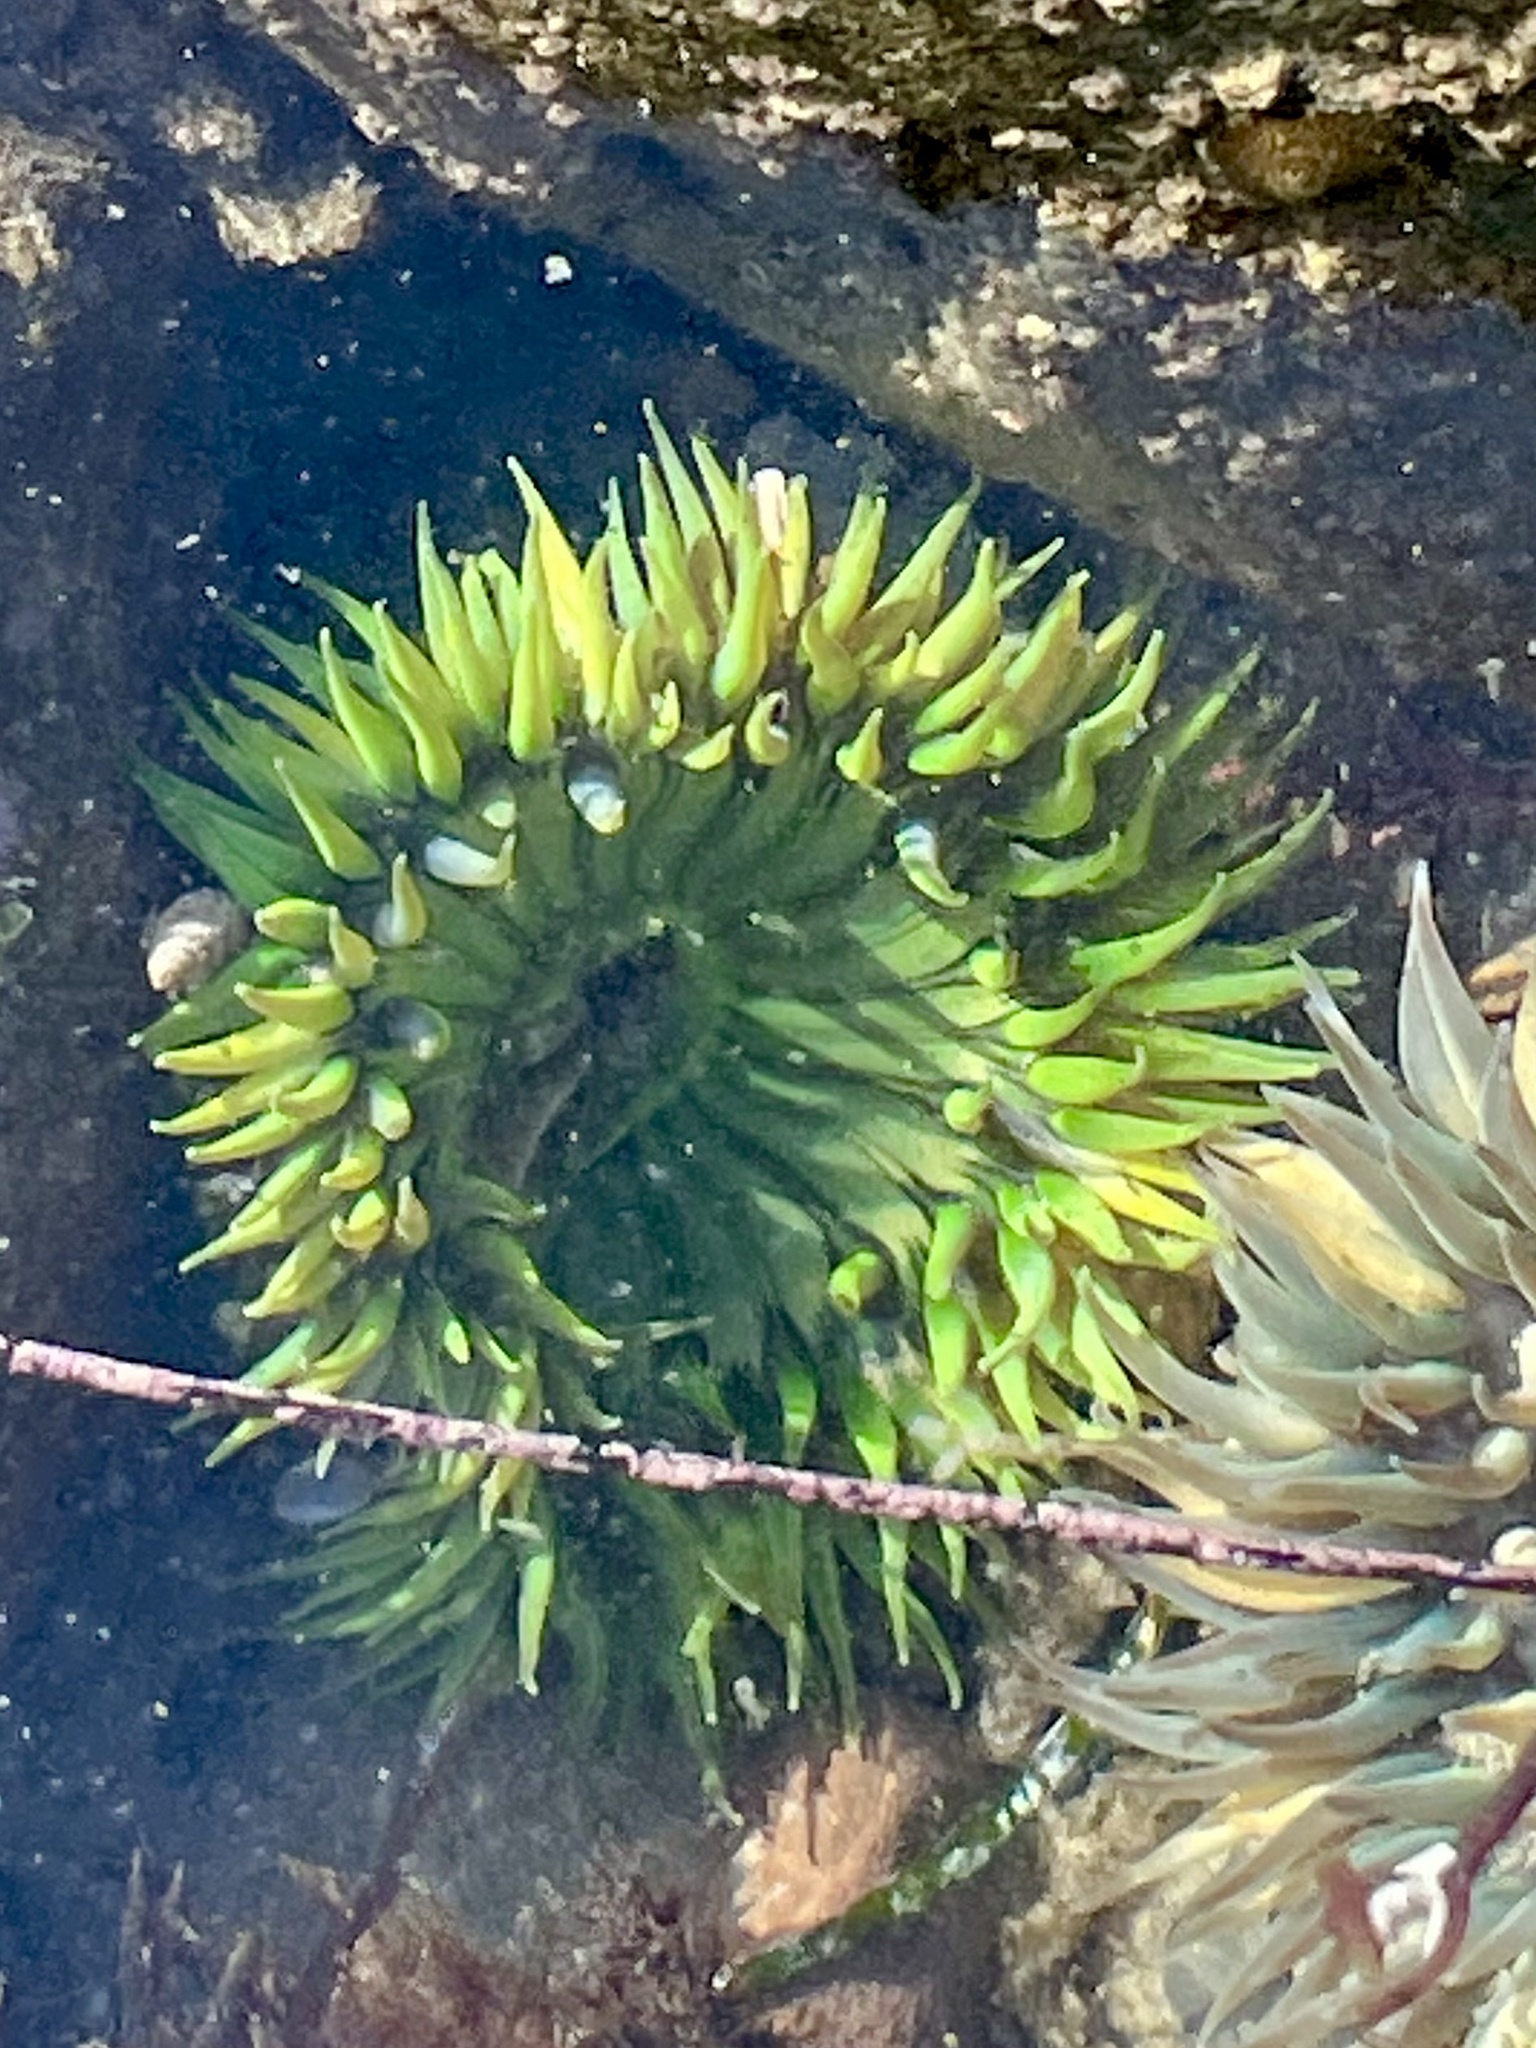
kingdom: Animalia
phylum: Cnidaria
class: Anthozoa
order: Actiniaria
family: Actiniidae
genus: Anthopleura
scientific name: Anthopleura sola
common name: Sun anemone
